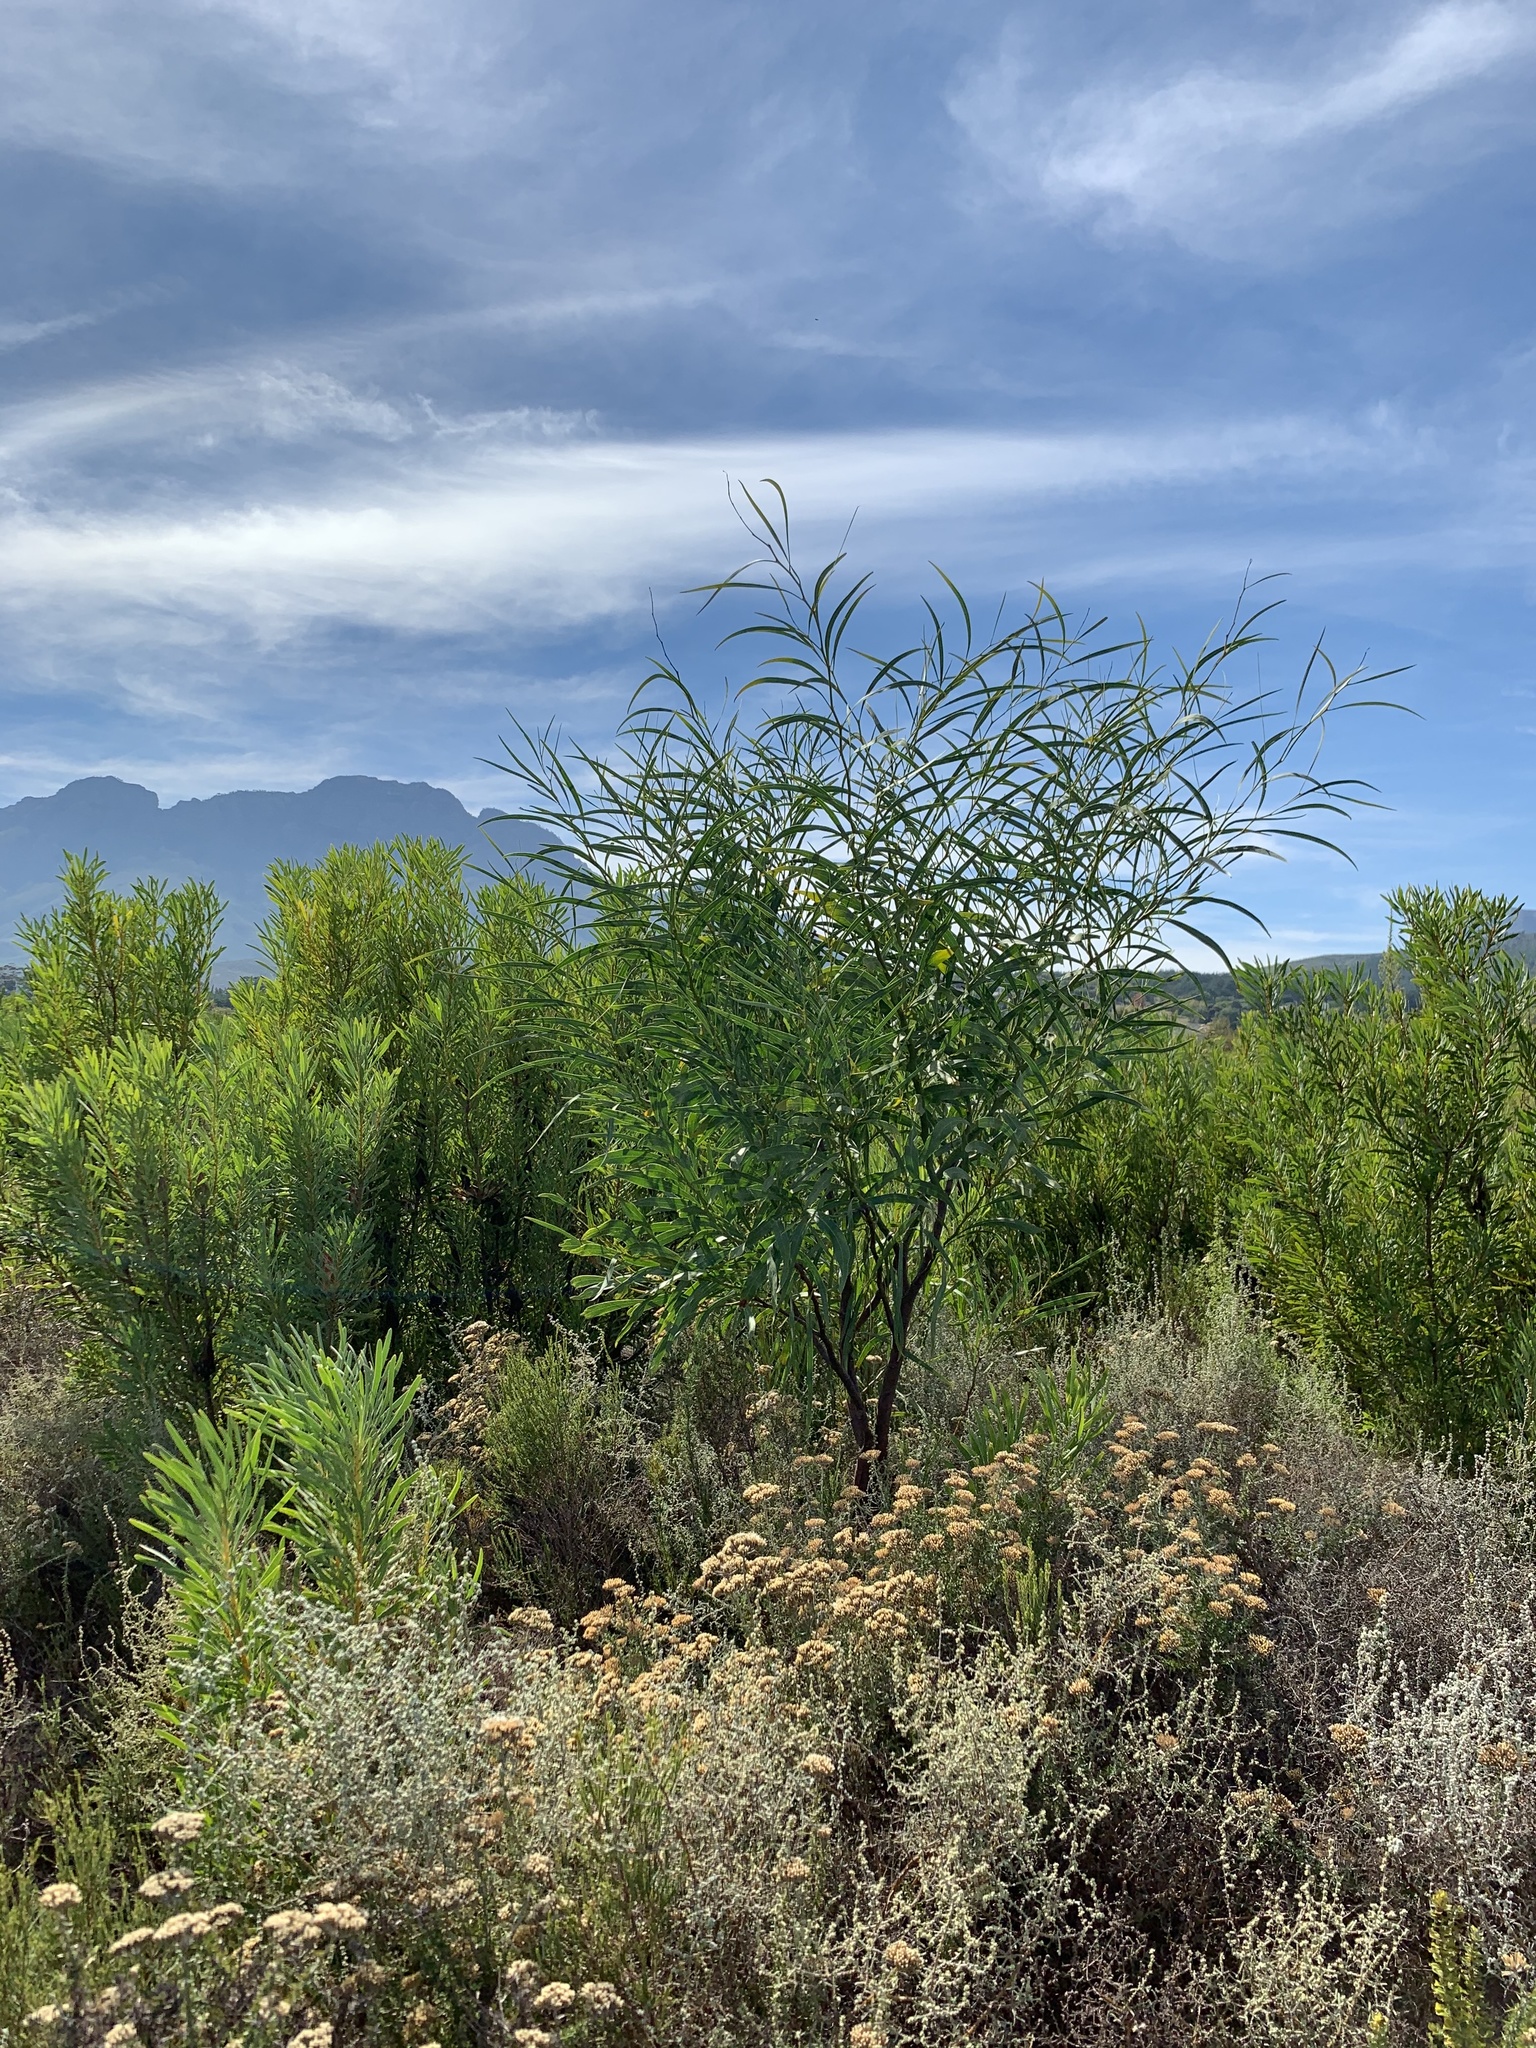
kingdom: Plantae
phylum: Tracheophyta
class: Magnoliopsida
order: Fabales
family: Fabaceae
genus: Acacia
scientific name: Acacia saligna
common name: Orange wattle
